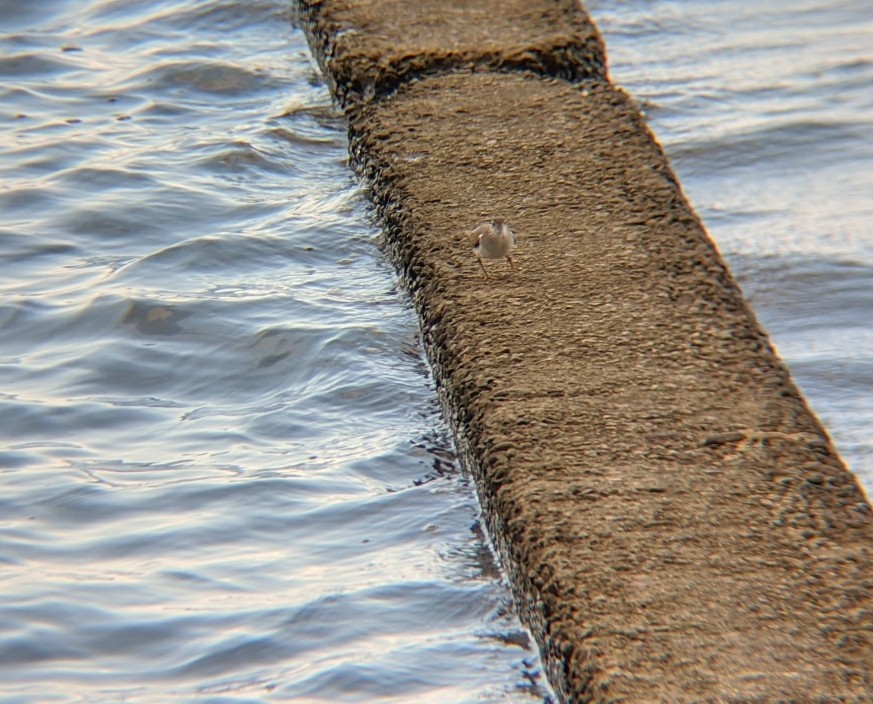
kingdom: Animalia
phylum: Chordata
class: Aves
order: Charadriiformes
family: Scolopacidae
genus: Actitis
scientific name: Actitis macularius
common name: Spotted sandpiper
